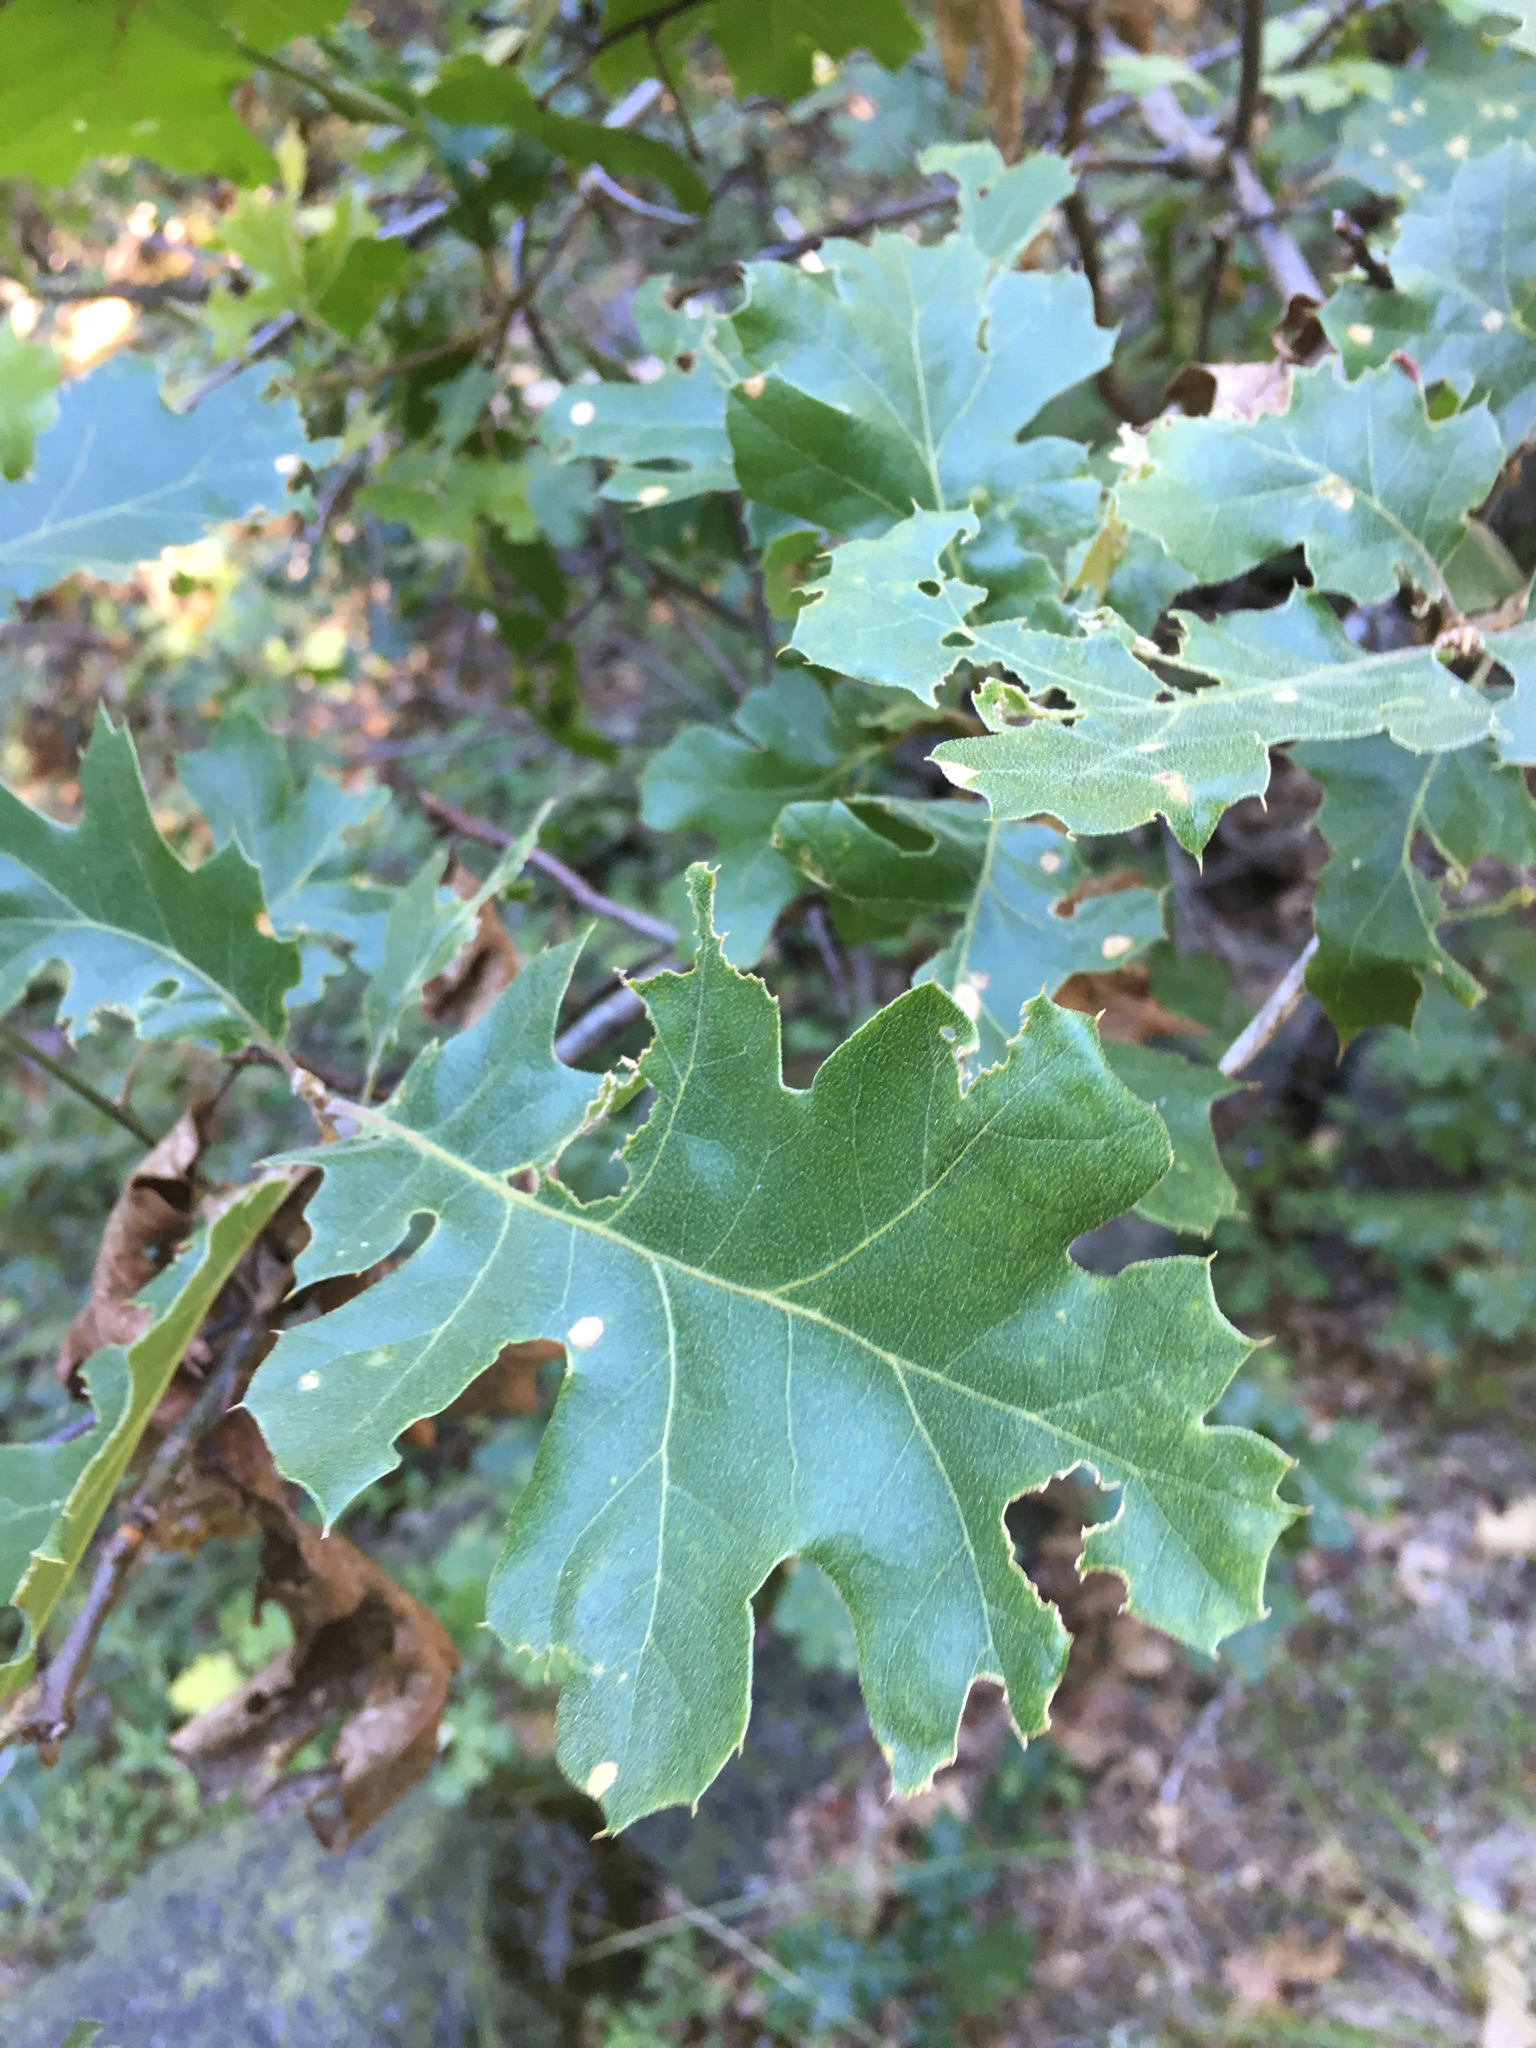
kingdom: Plantae
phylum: Tracheophyta
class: Magnoliopsida
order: Fagales
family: Fagaceae
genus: Quercus
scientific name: Quercus kelloggii
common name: California black oak
